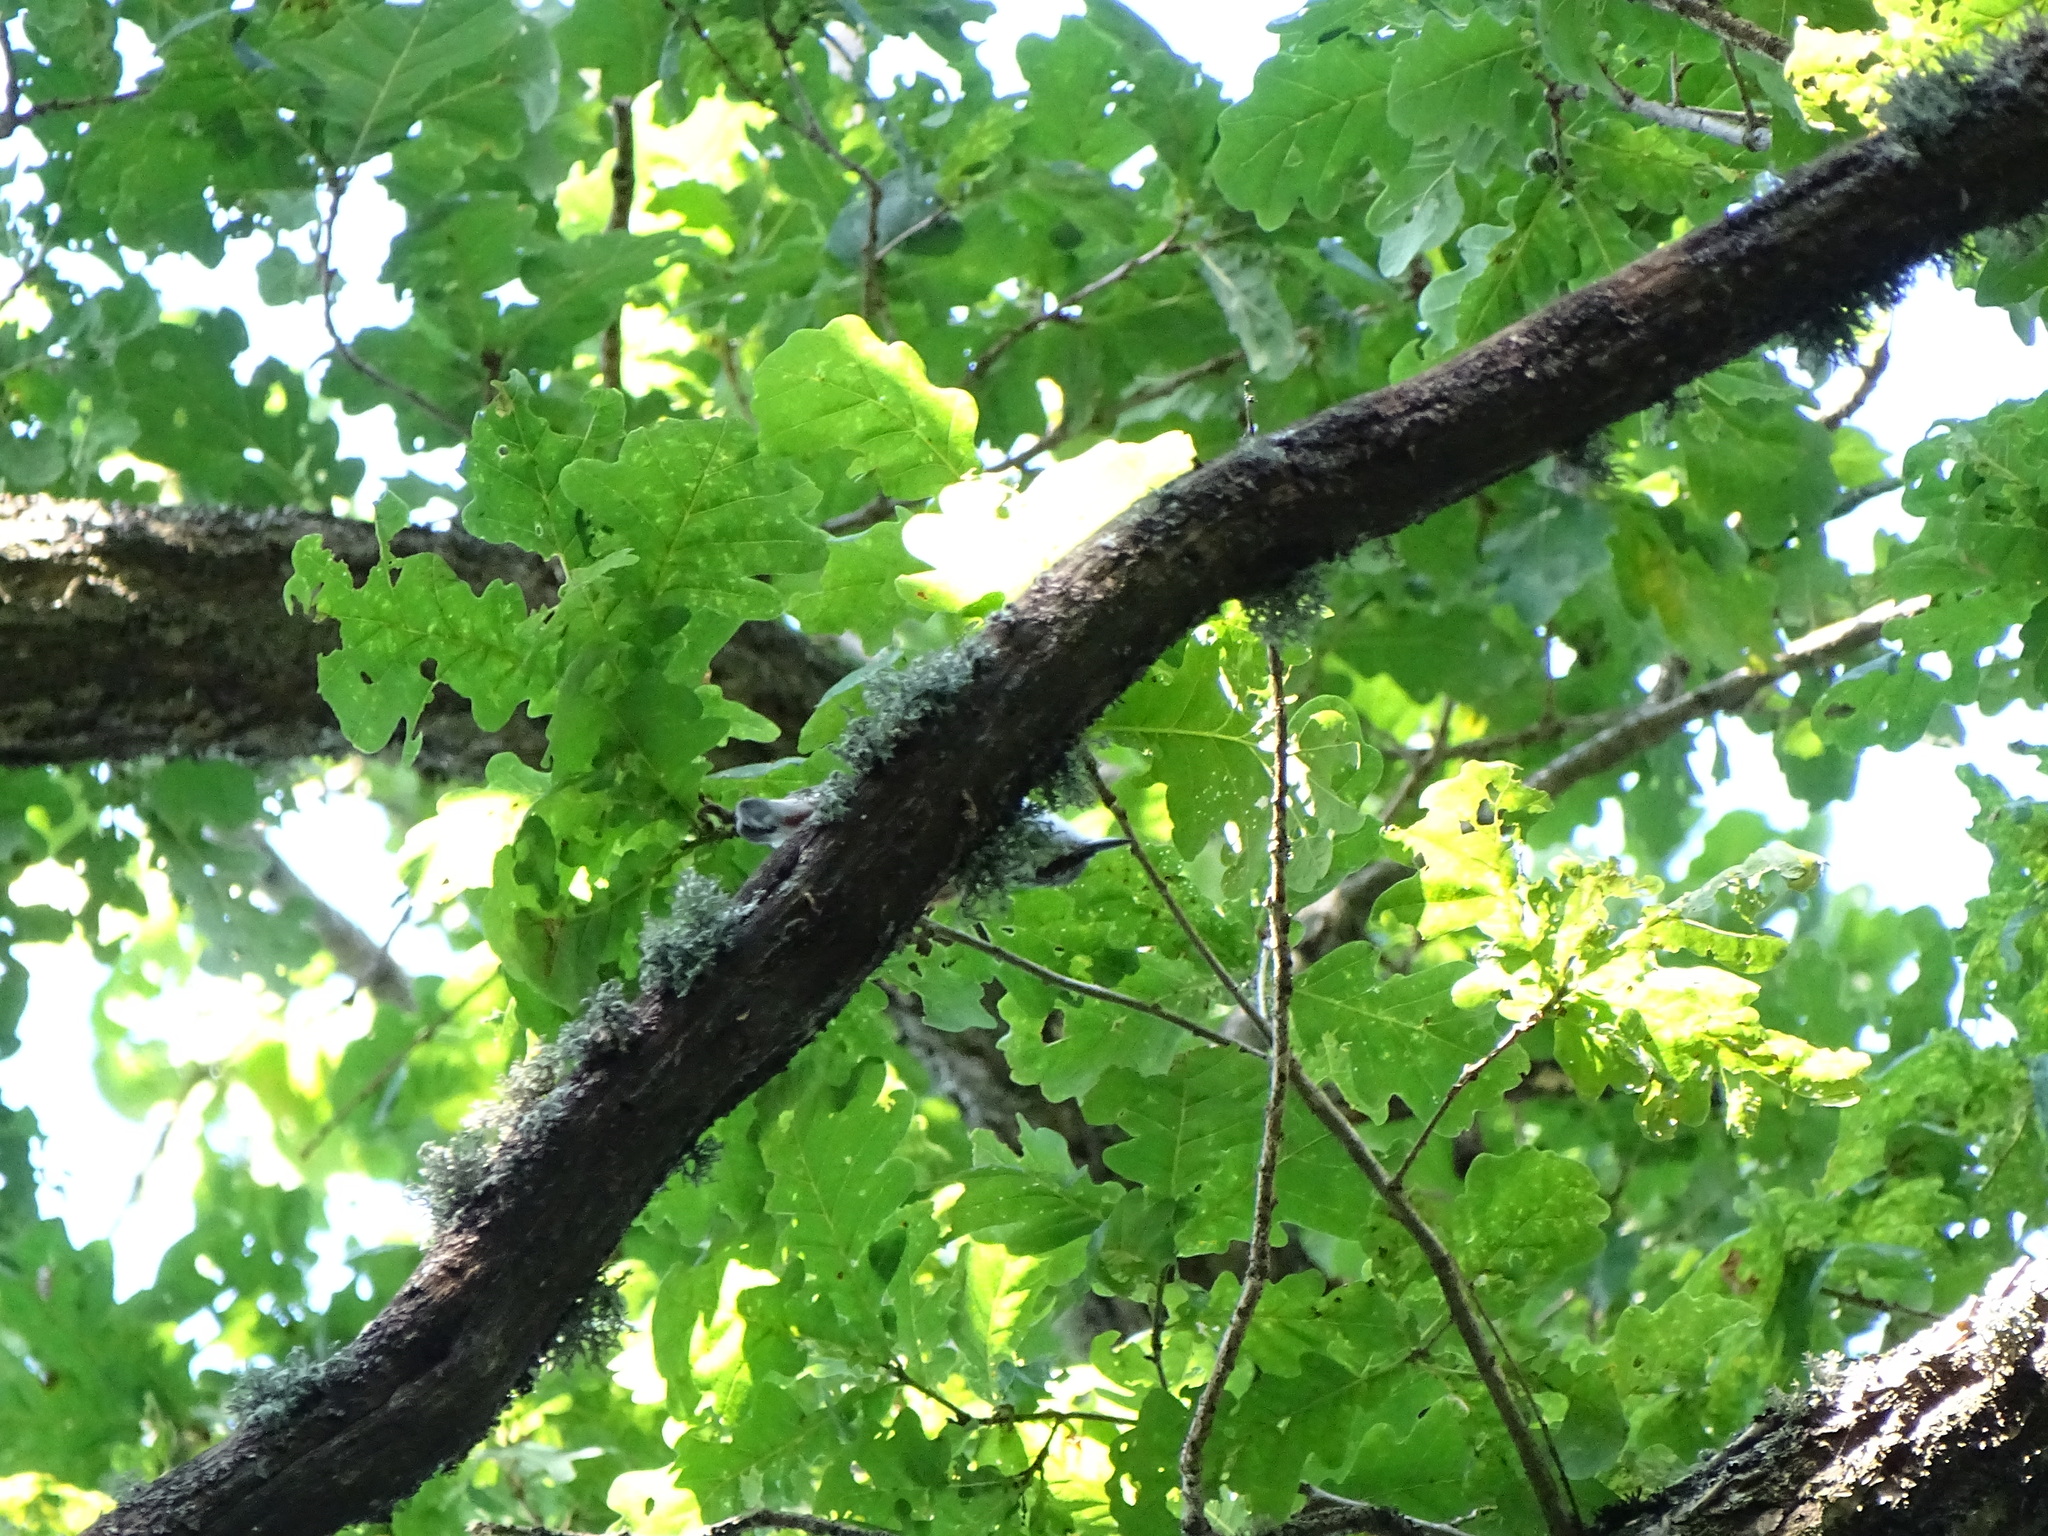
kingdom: Animalia
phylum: Chordata
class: Aves
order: Passeriformes
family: Sittidae
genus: Sitta
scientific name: Sitta europaea
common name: Eurasian nuthatch
